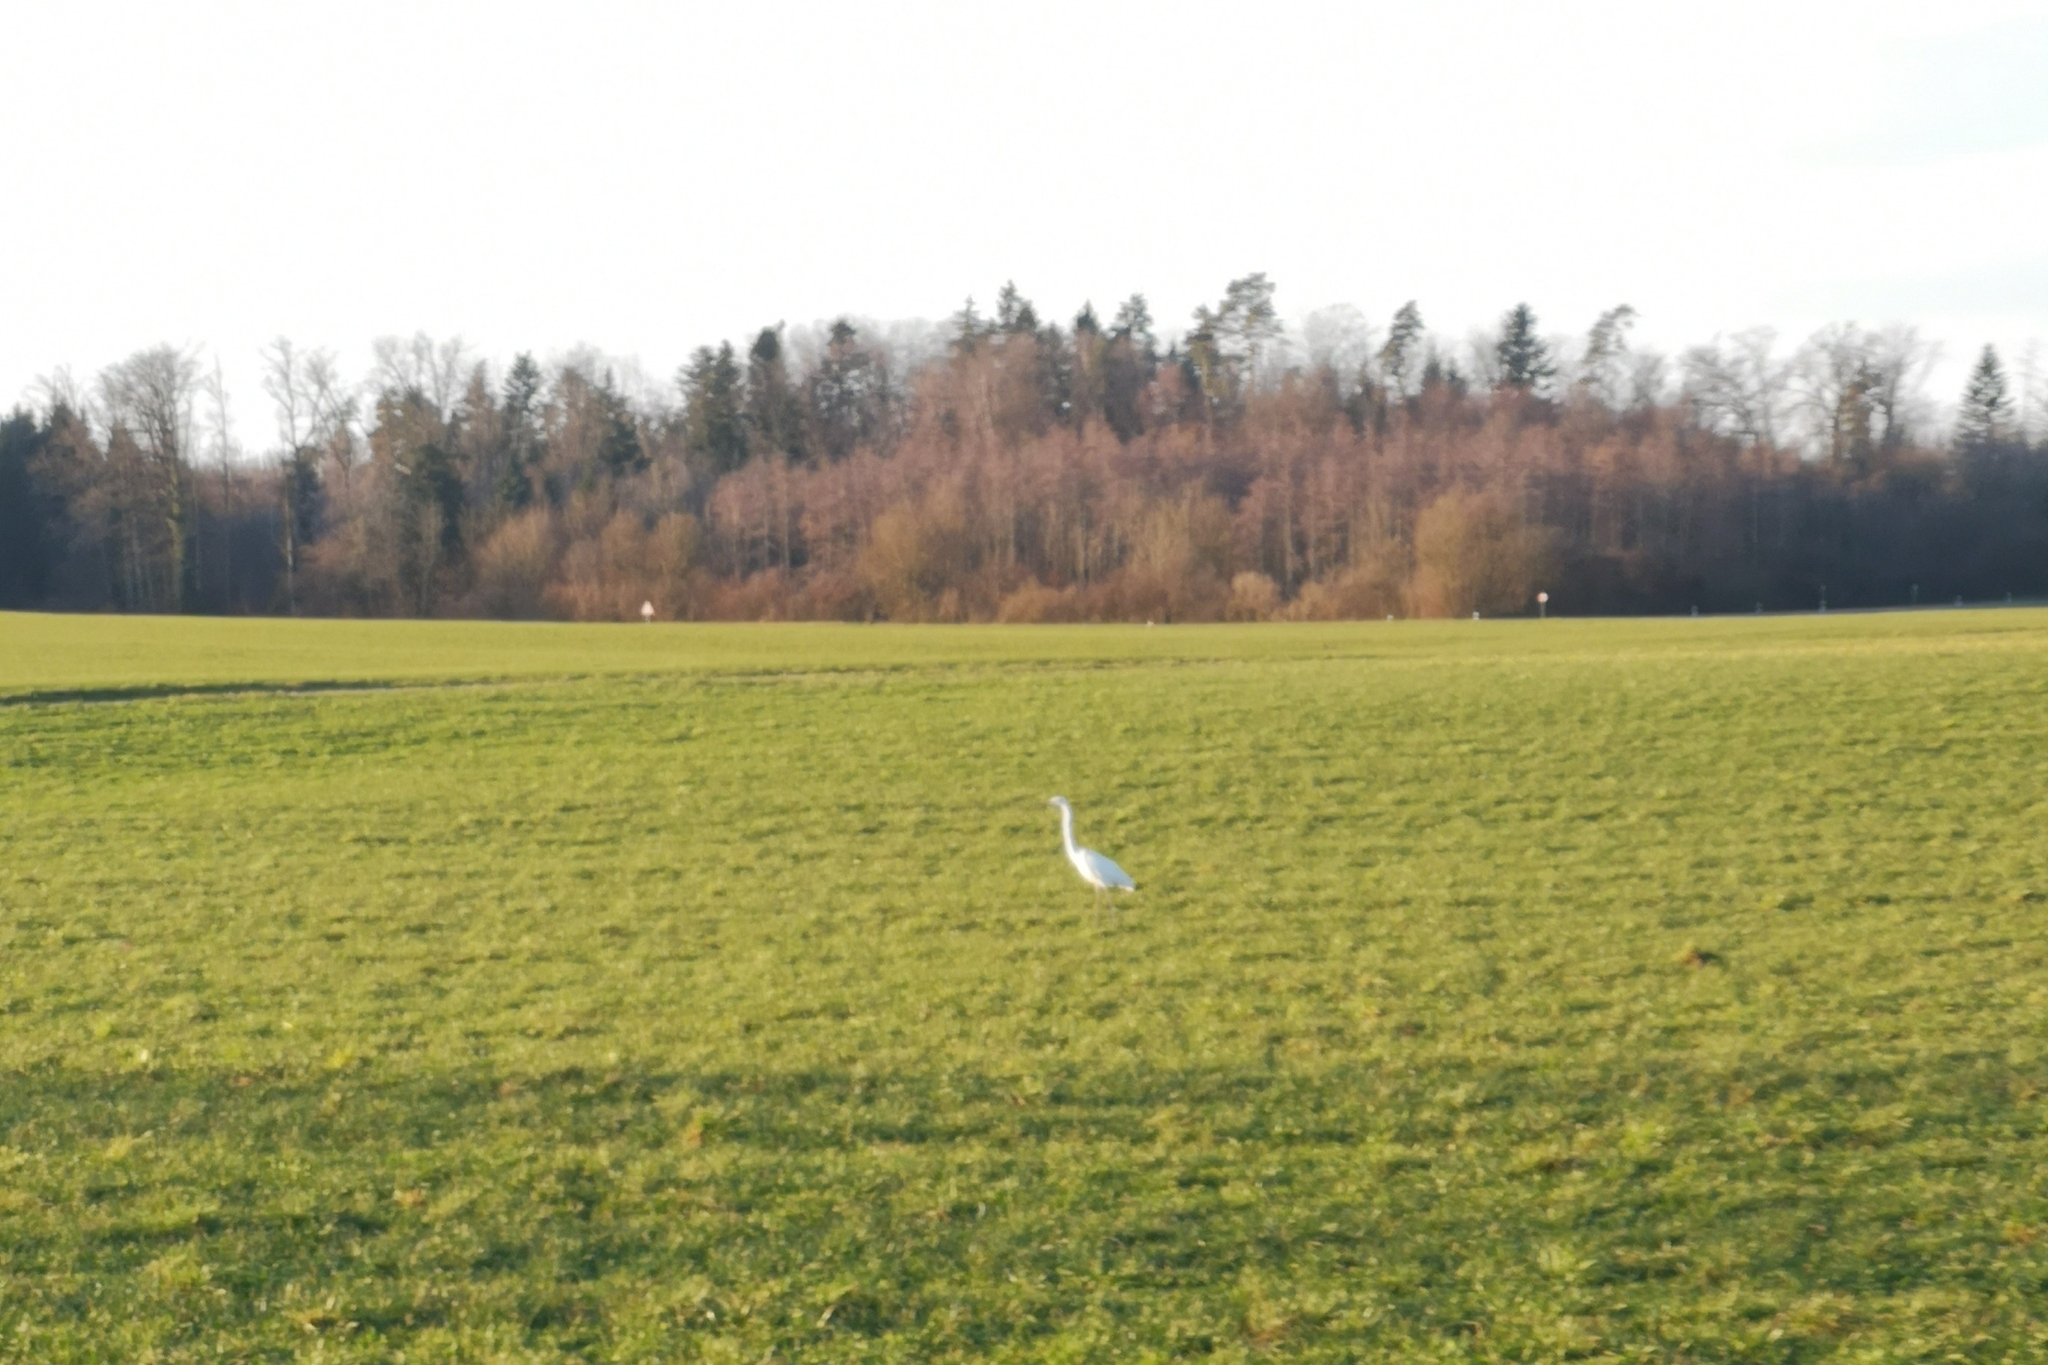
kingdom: Animalia
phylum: Chordata
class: Aves
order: Pelecaniformes
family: Ardeidae
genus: Ardea
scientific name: Ardea alba
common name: Great egret
